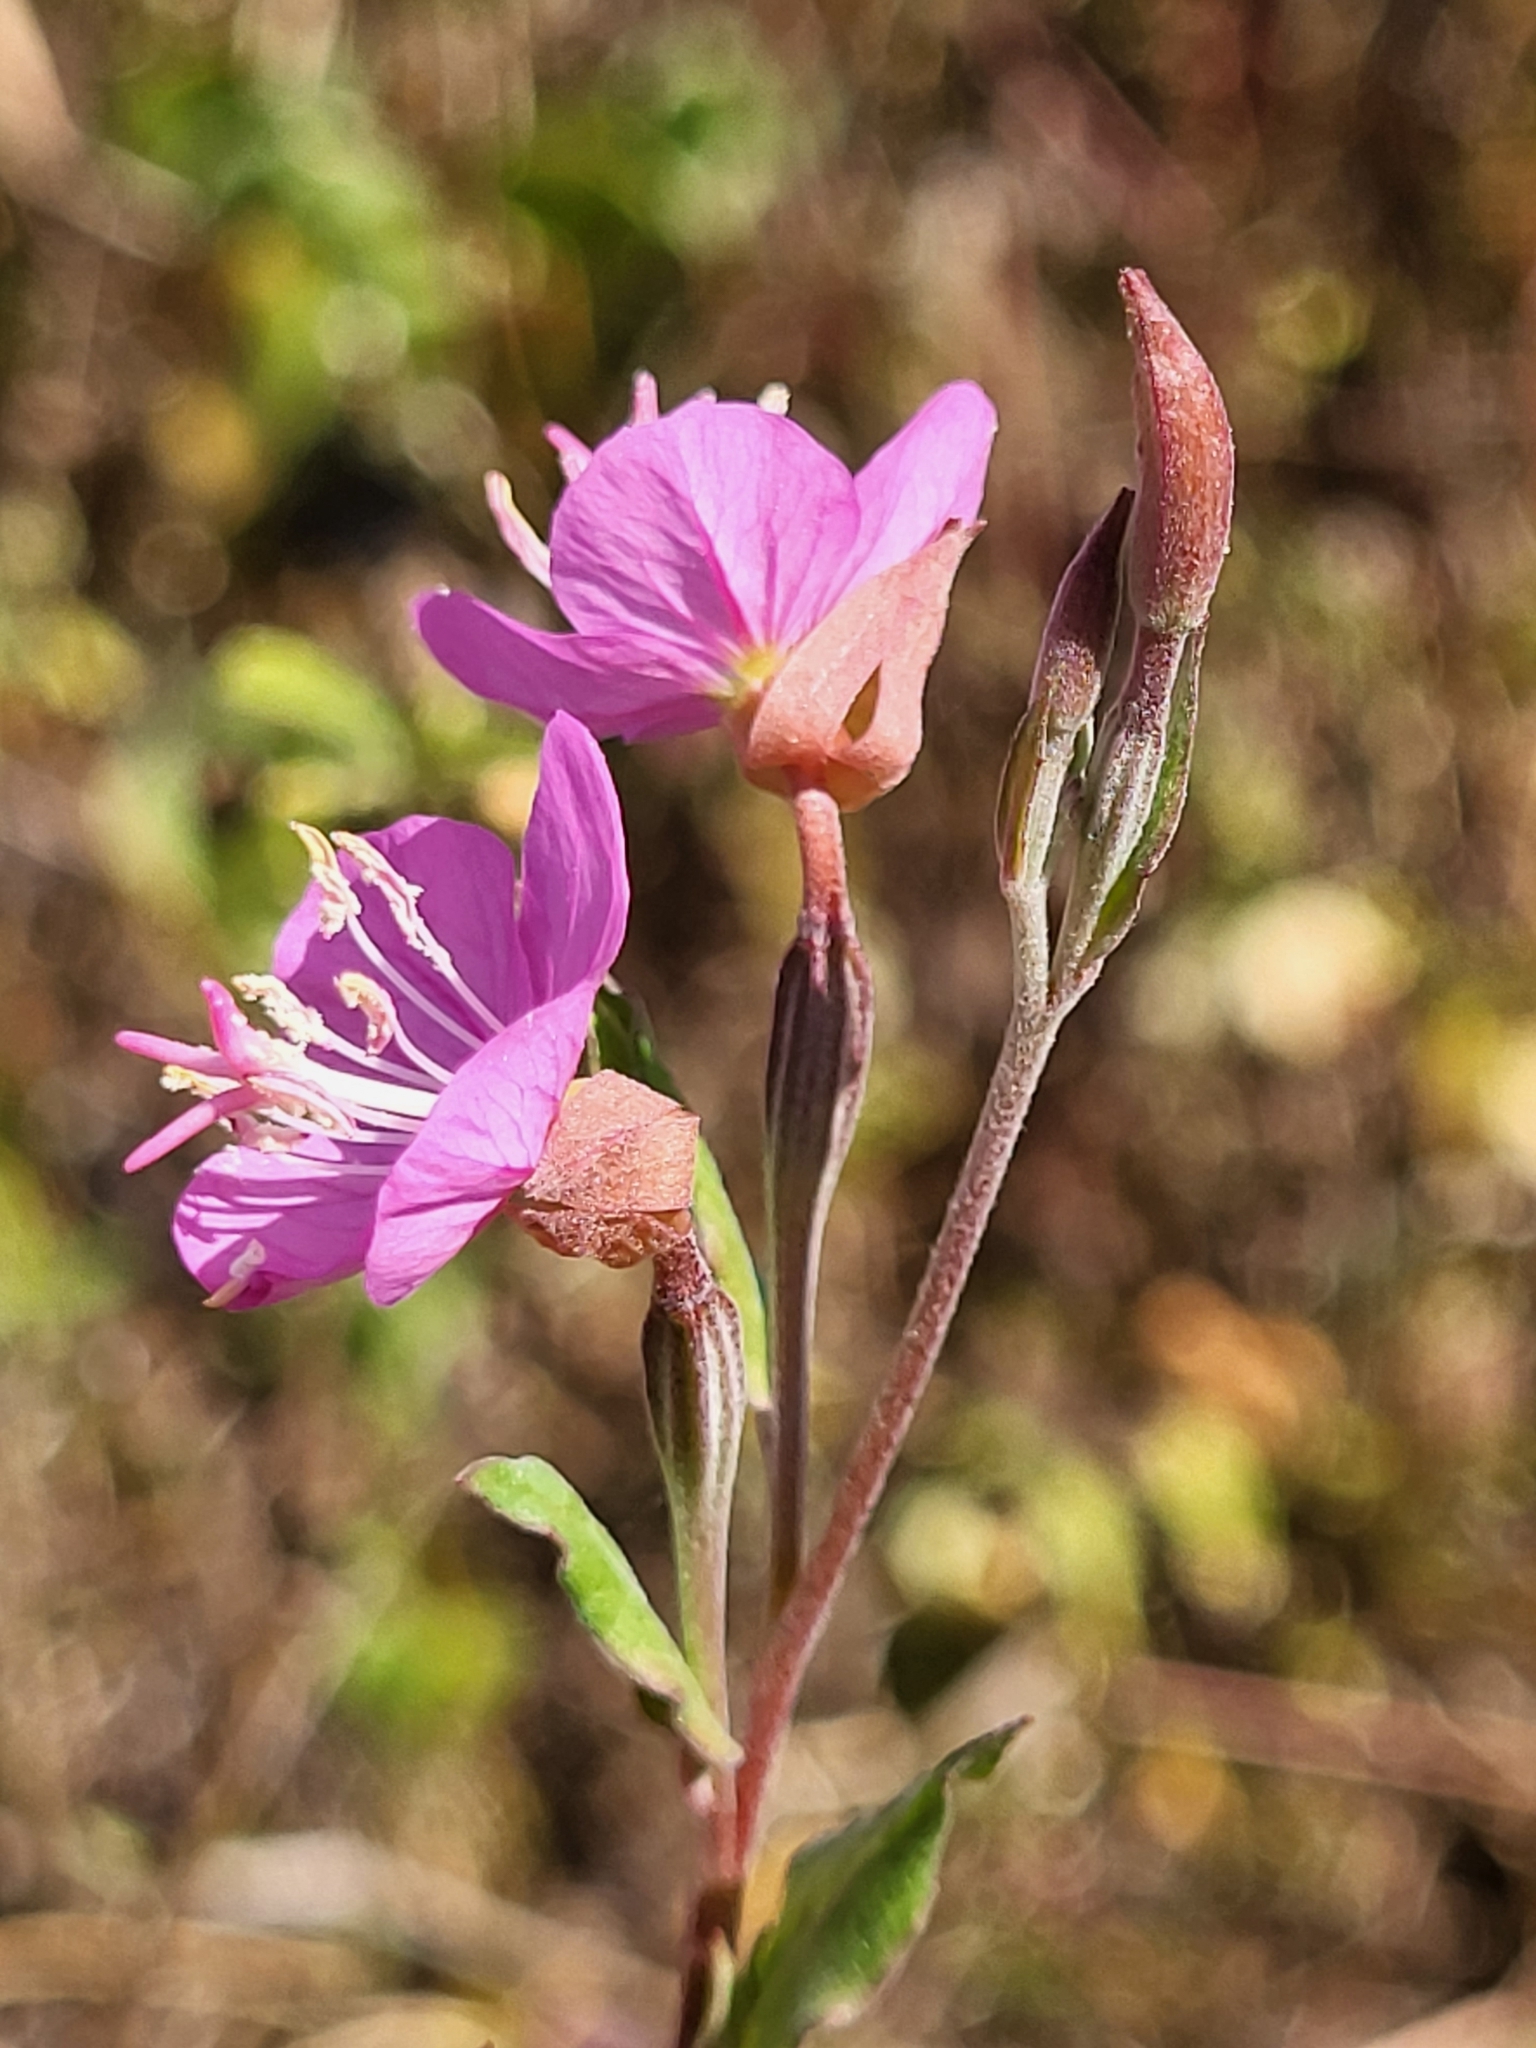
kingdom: Plantae
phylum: Tracheophyta
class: Magnoliopsida
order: Myrtales
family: Onagraceae
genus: Oenothera
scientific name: Oenothera rosea
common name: Rosy evening-primrose
